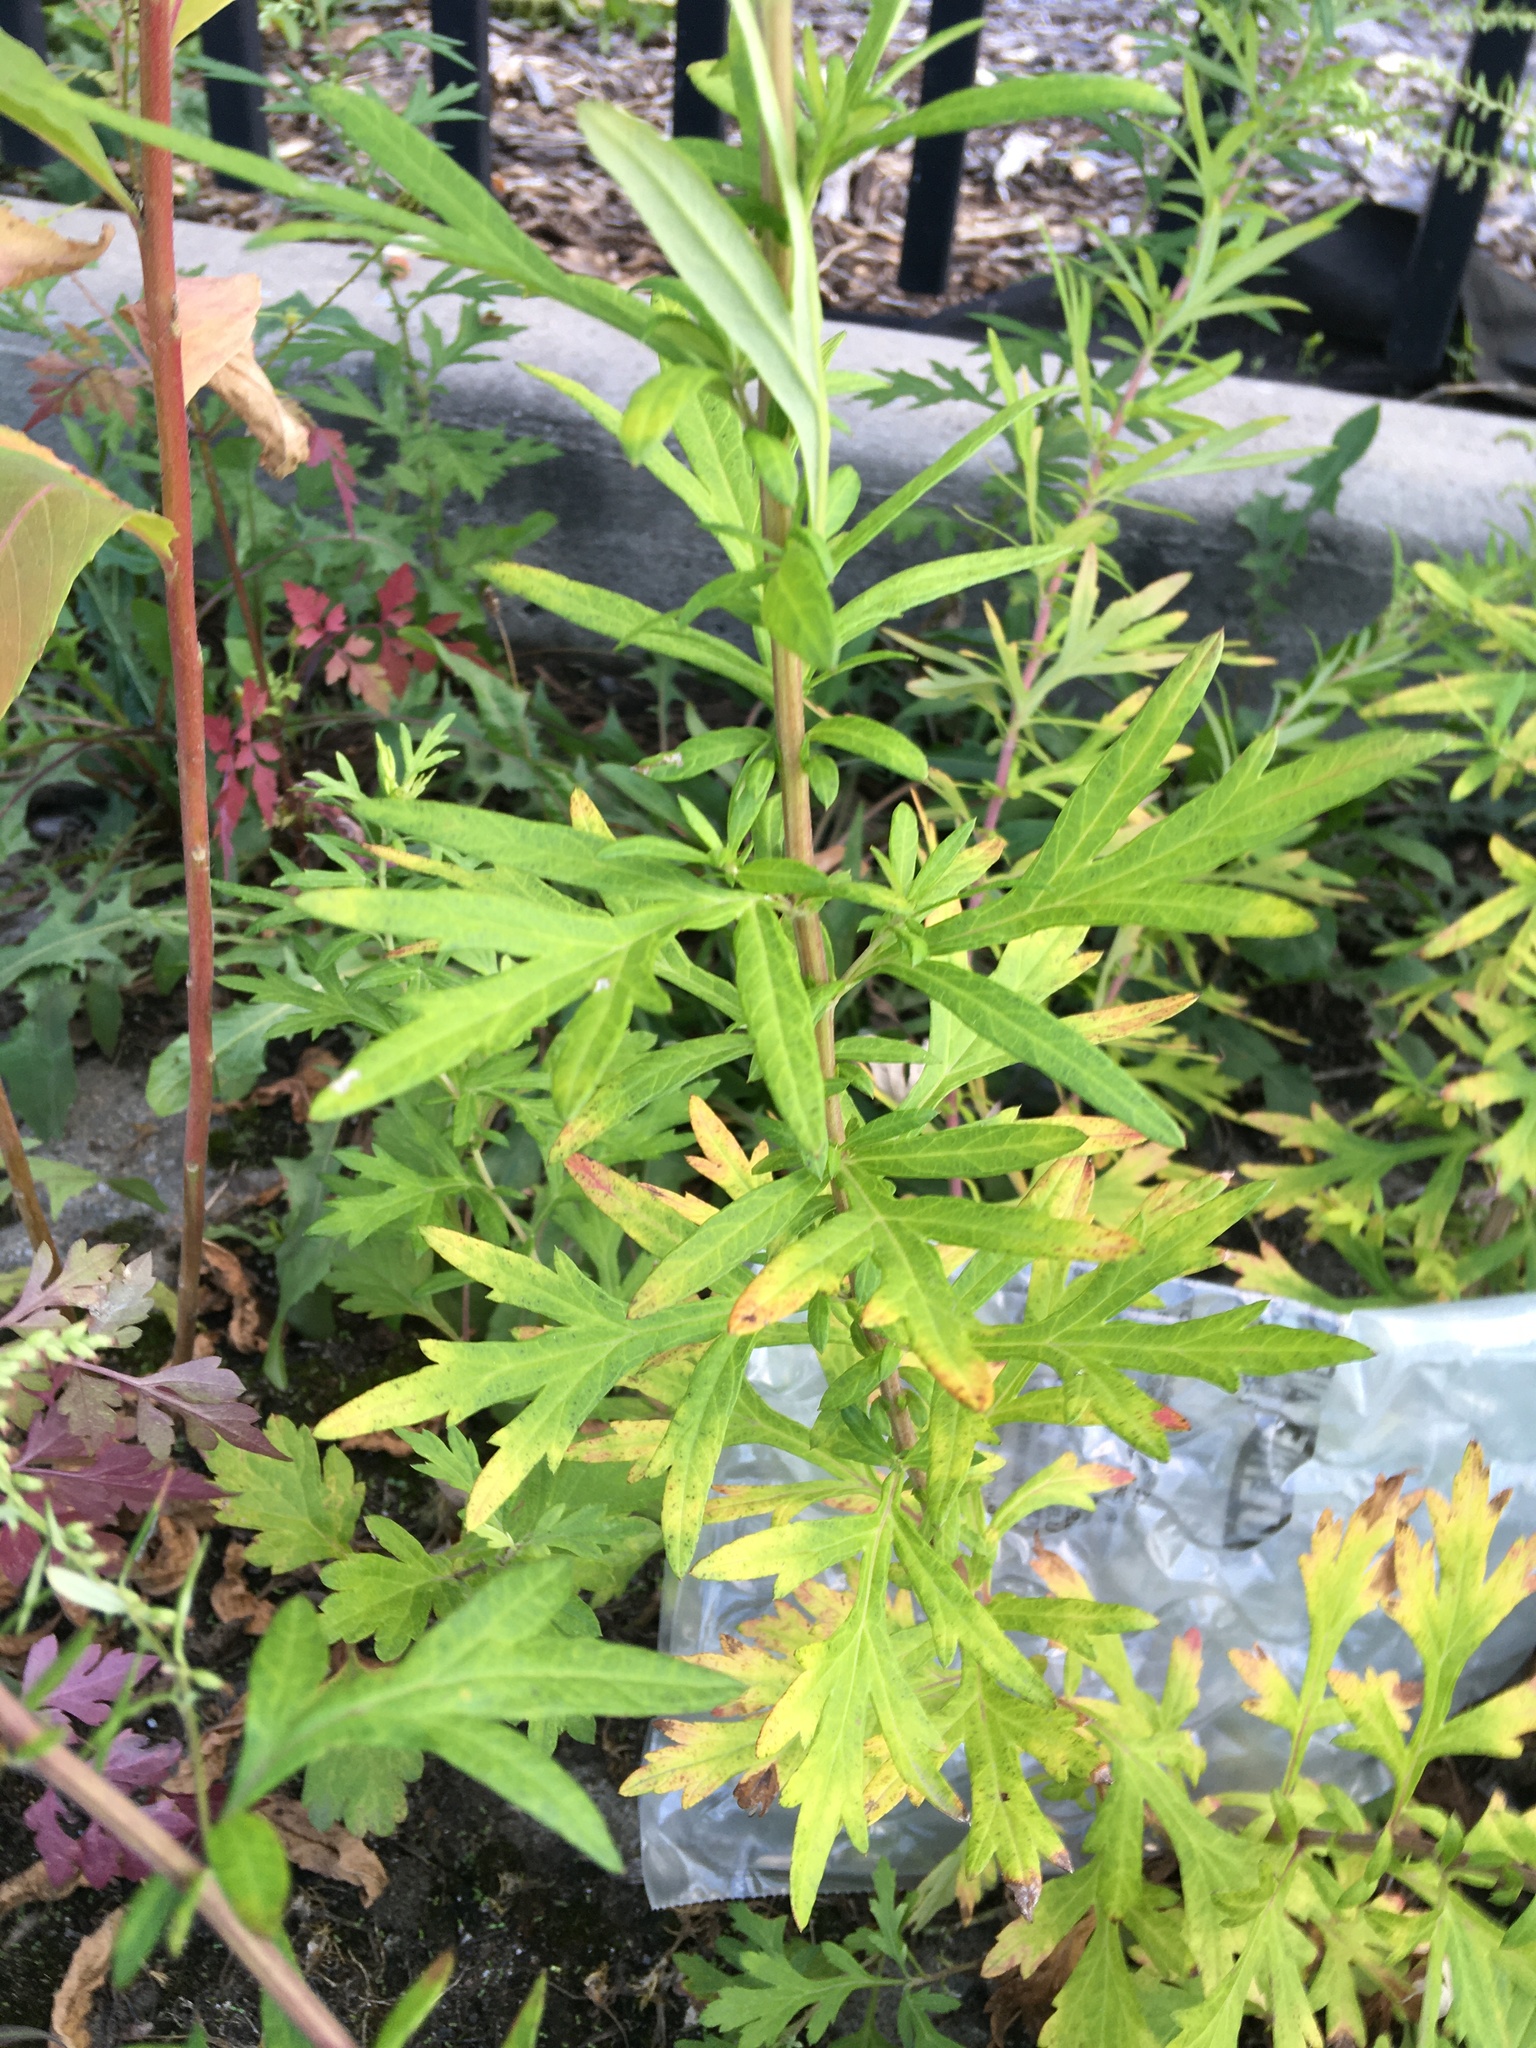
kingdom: Plantae
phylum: Tracheophyta
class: Magnoliopsida
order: Asterales
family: Asteraceae
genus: Artemisia
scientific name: Artemisia vulgaris
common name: Mugwort
